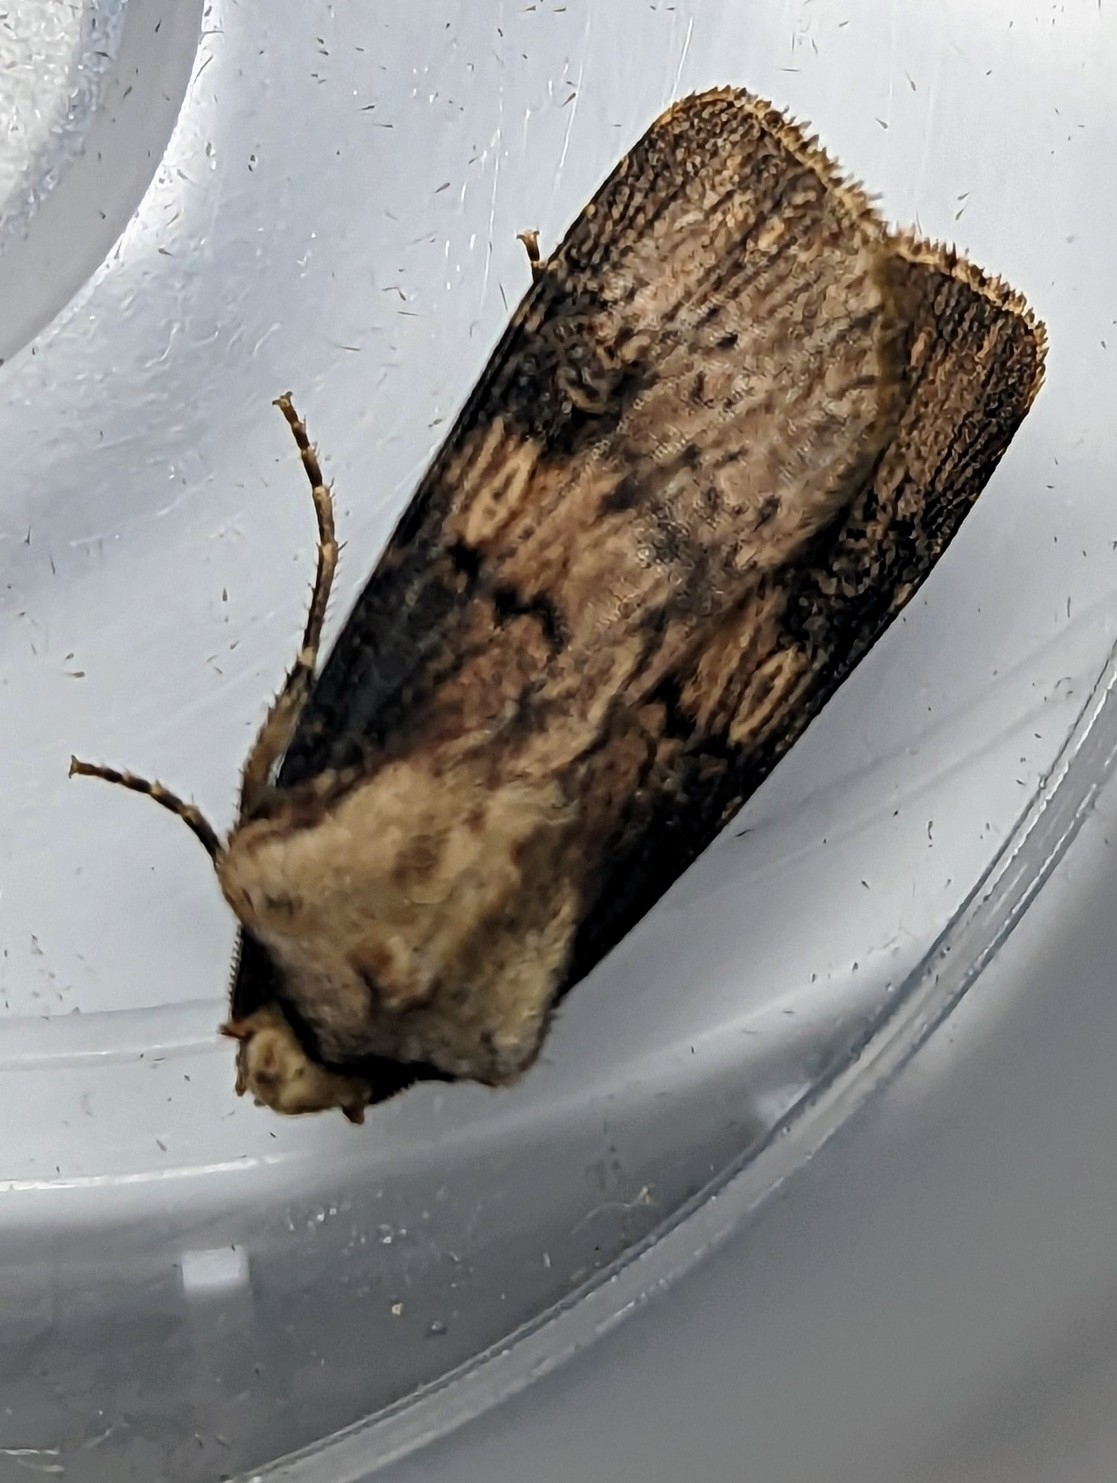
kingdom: Animalia
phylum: Arthropoda
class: Insecta
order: Lepidoptera
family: Noctuidae
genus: Agrotis
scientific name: Agrotis puta
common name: Shuttle-shaped dart
